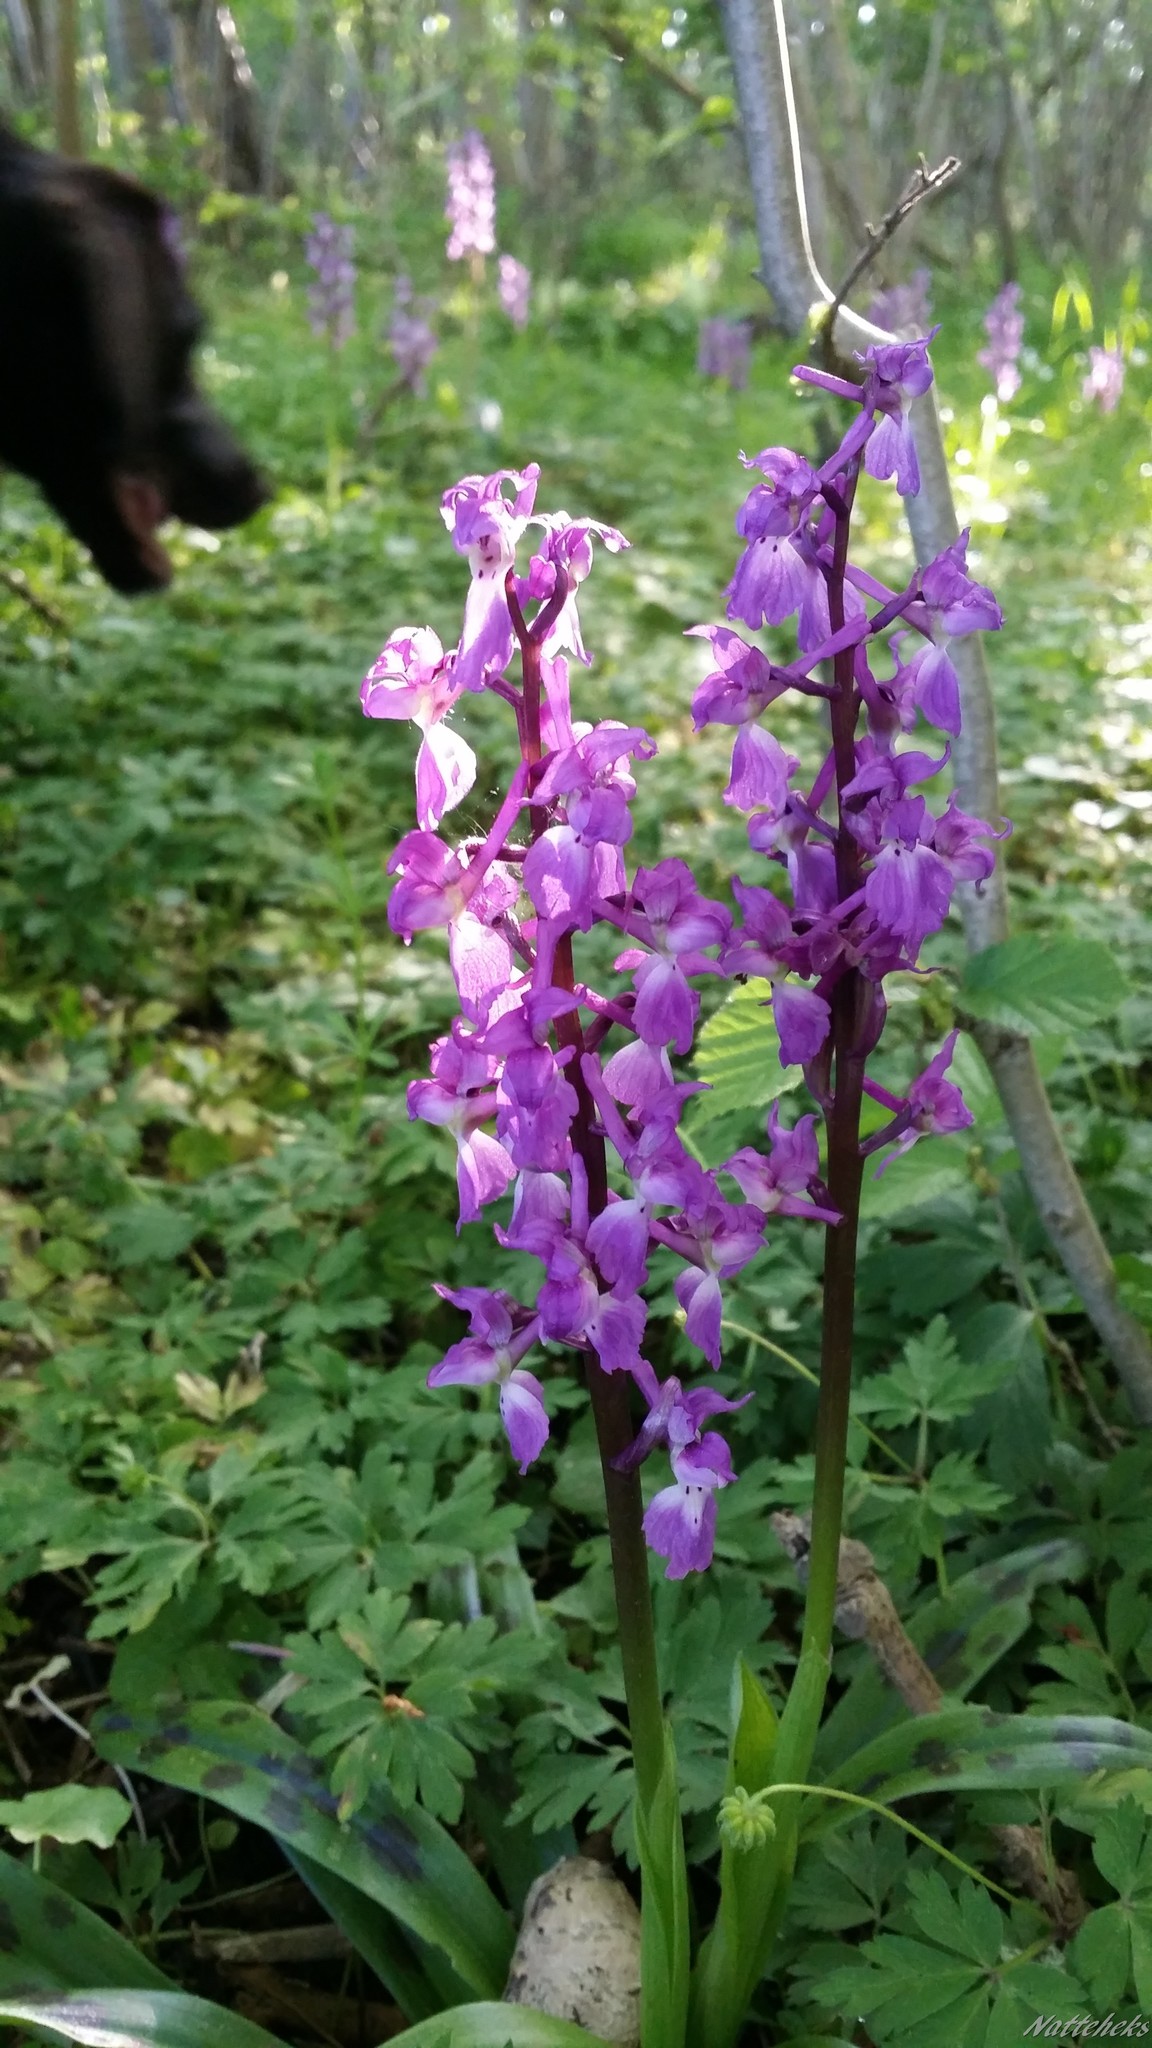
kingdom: Plantae
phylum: Tracheophyta
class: Liliopsida
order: Asparagales
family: Orchidaceae
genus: Orchis
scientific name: Orchis mascula
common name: Early-purple orchid
